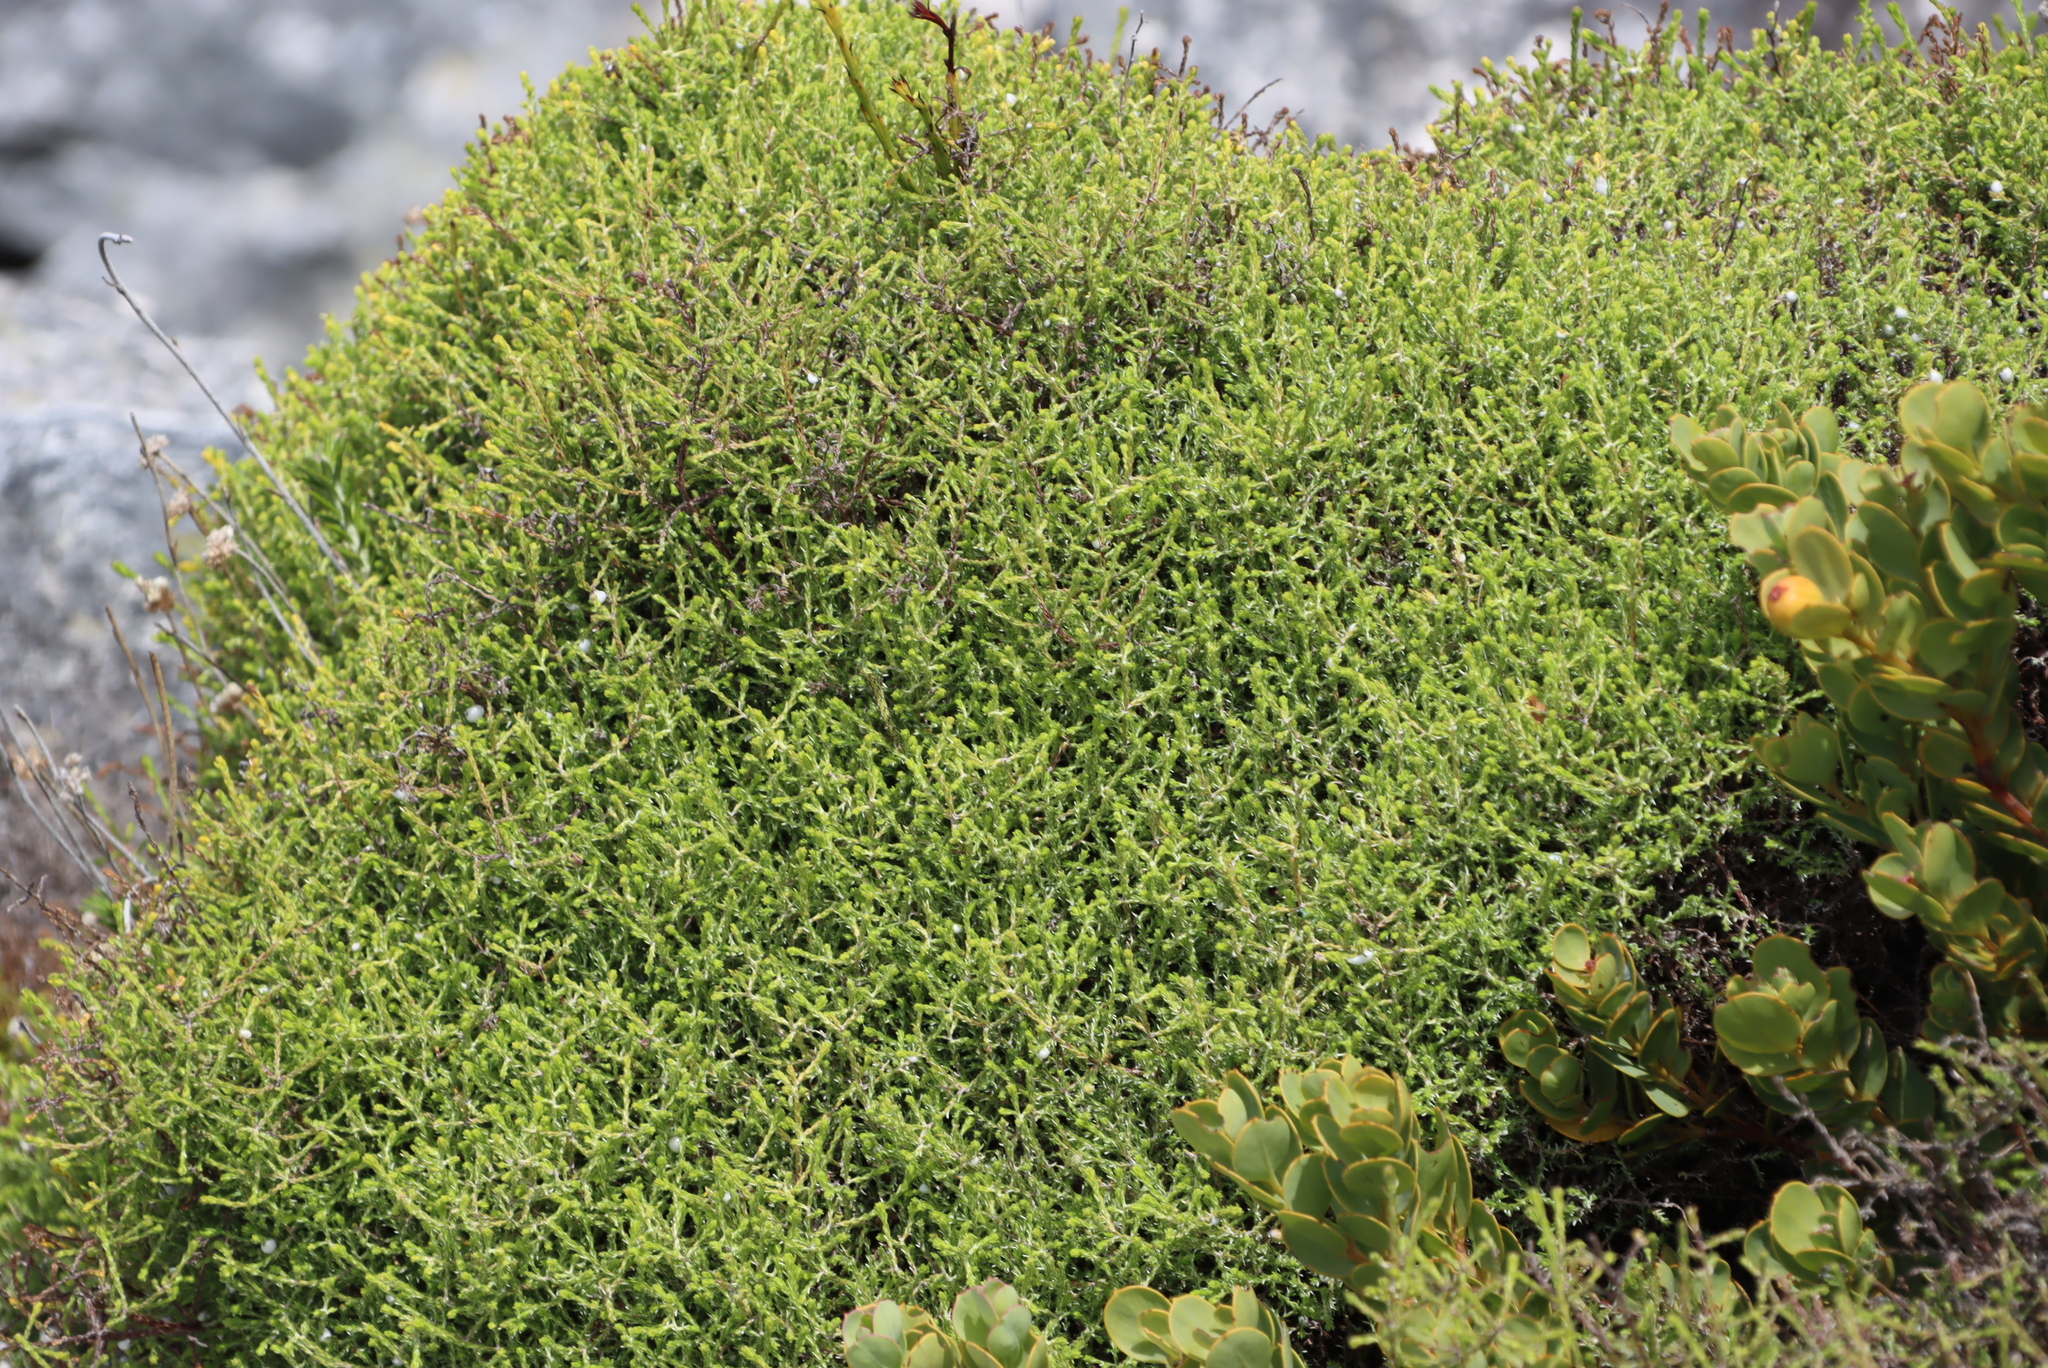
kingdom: Plantae
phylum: Tracheophyta
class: Magnoliopsida
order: Asterales
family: Asteraceae
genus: Myrovernix
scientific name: Myrovernix scaber
